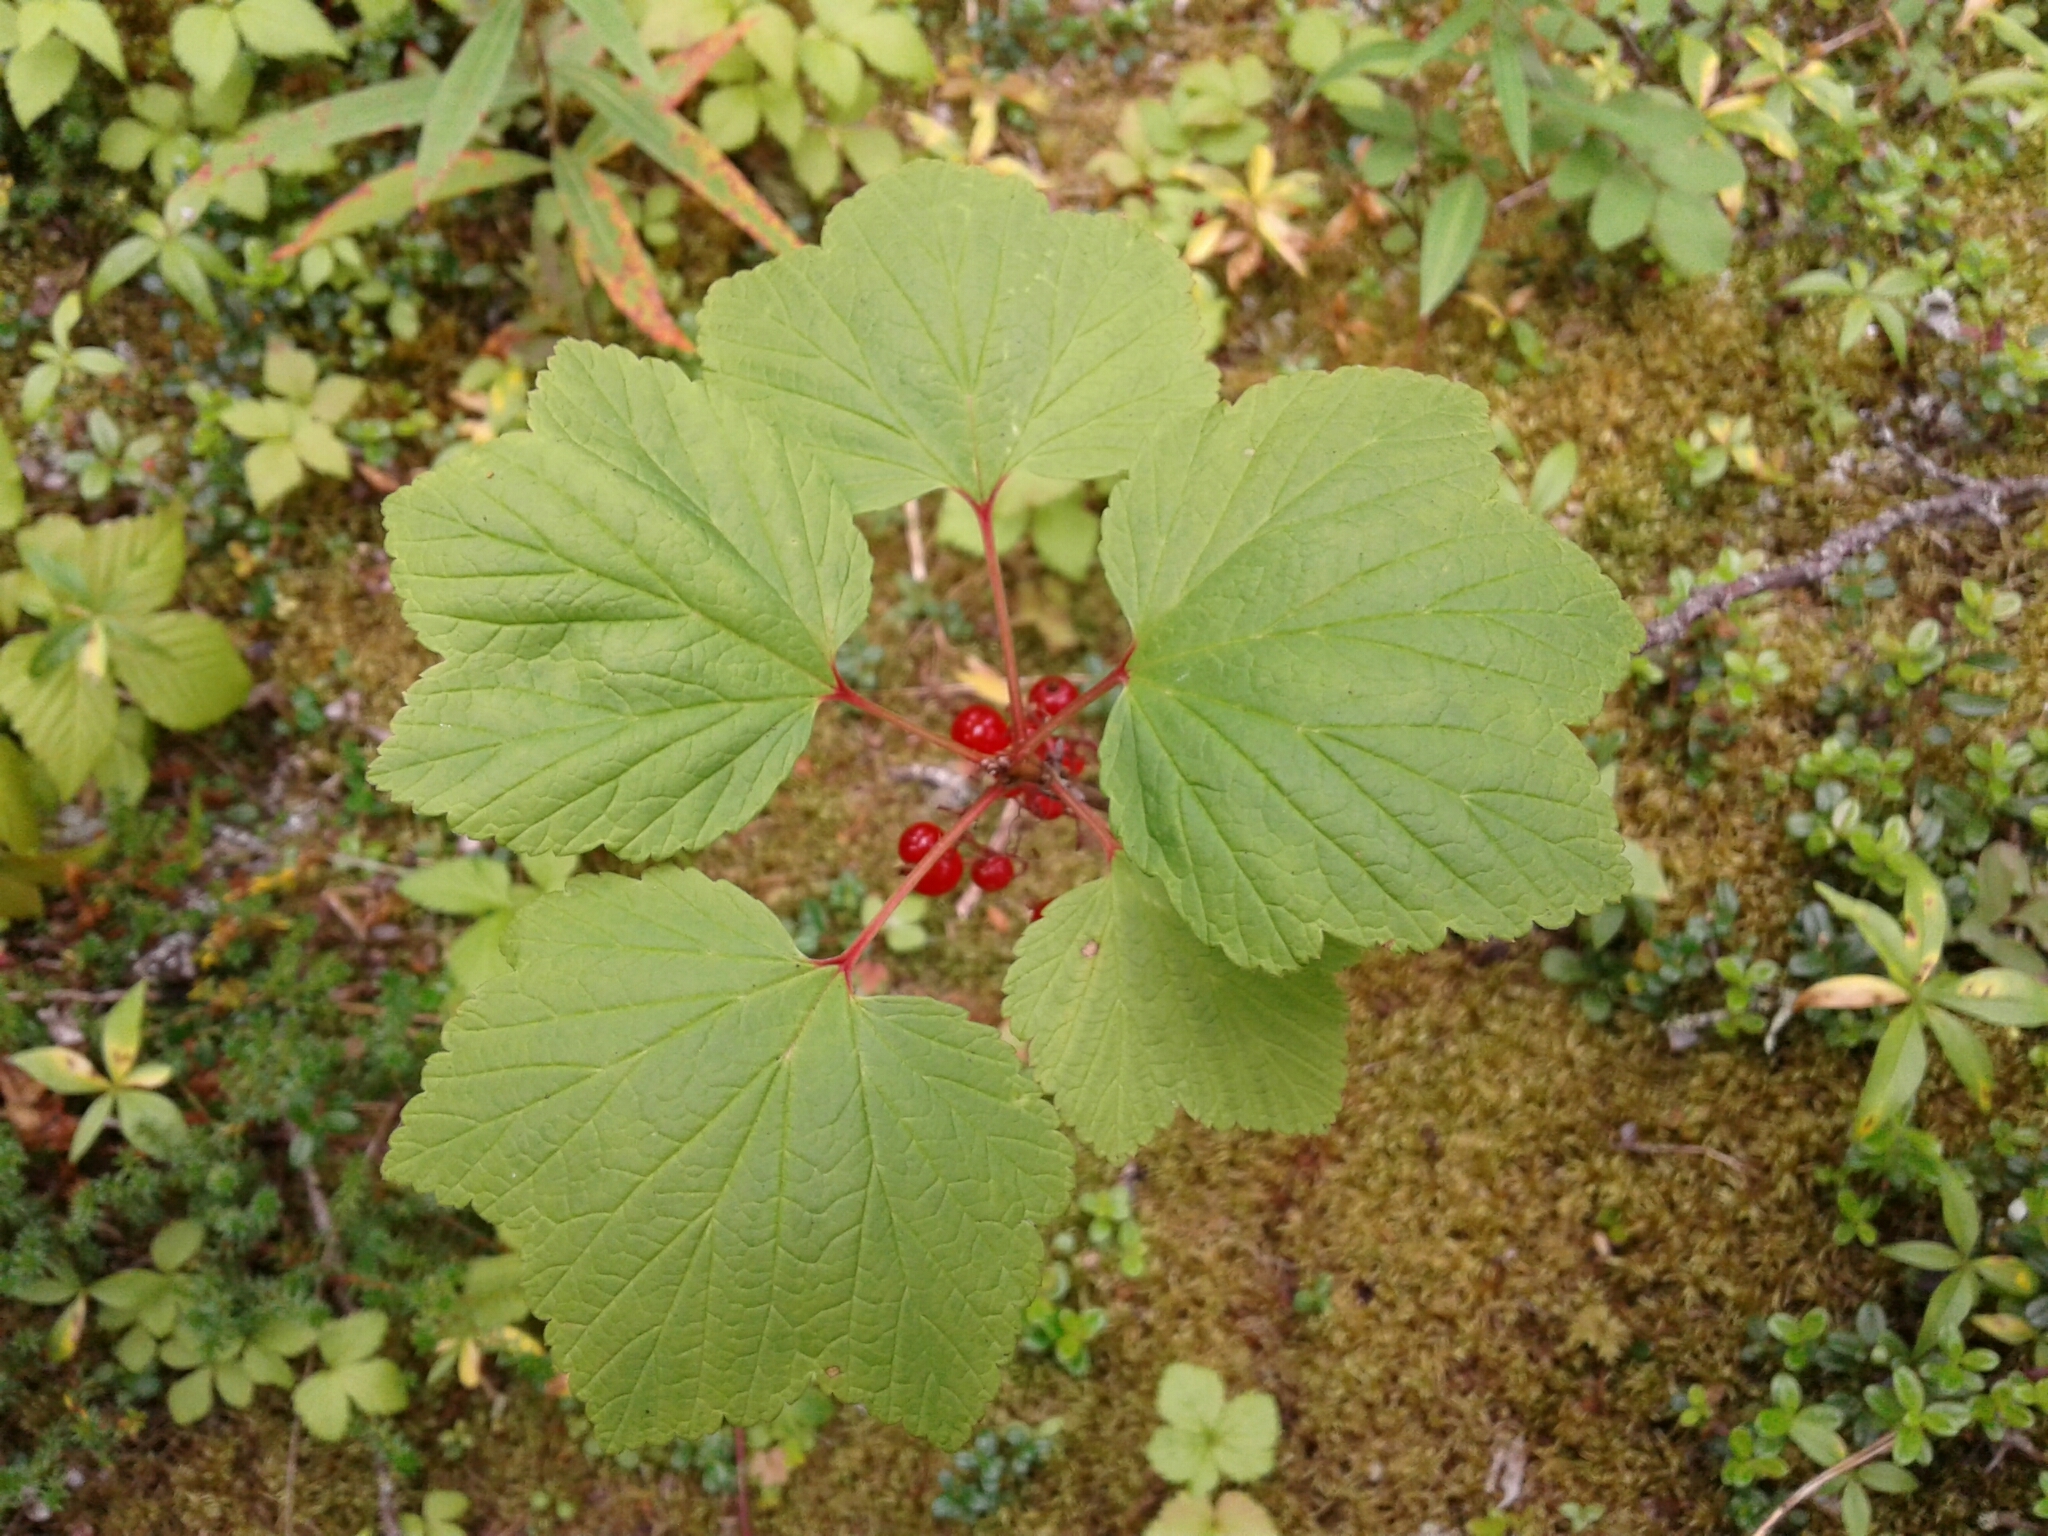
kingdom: Plantae
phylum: Tracheophyta
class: Magnoliopsida
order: Saxifragales
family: Grossulariaceae
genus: Ribes
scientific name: Ribes triste
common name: Swamp red currant
